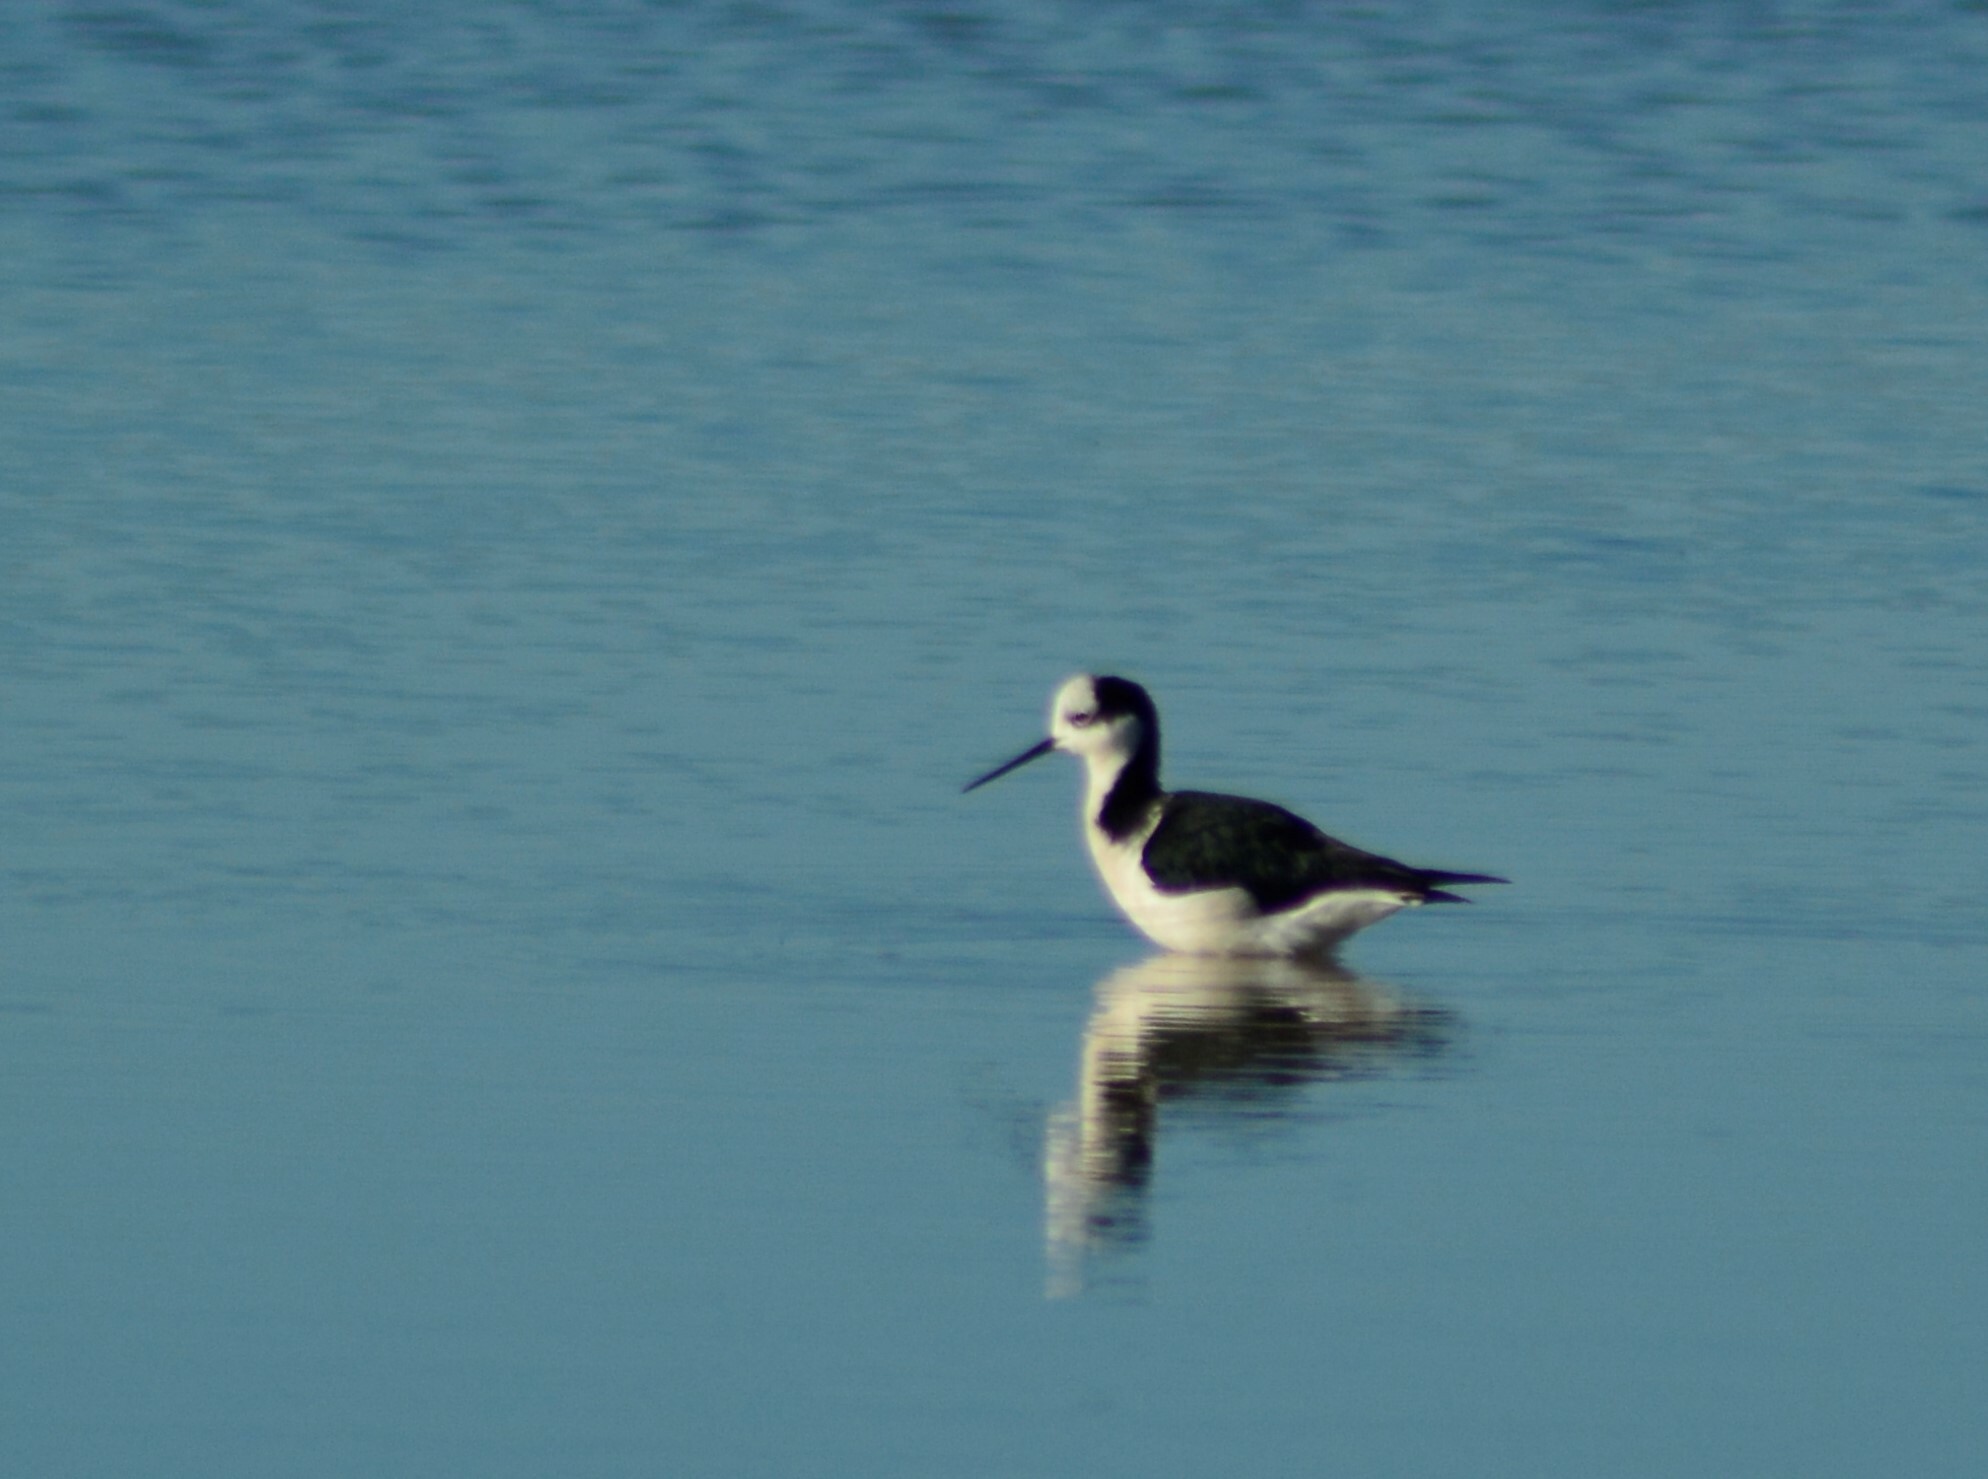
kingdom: Animalia
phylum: Chordata
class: Aves
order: Charadriiformes
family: Recurvirostridae
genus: Himantopus
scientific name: Himantopus mexicanus
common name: Black-necked stilt
